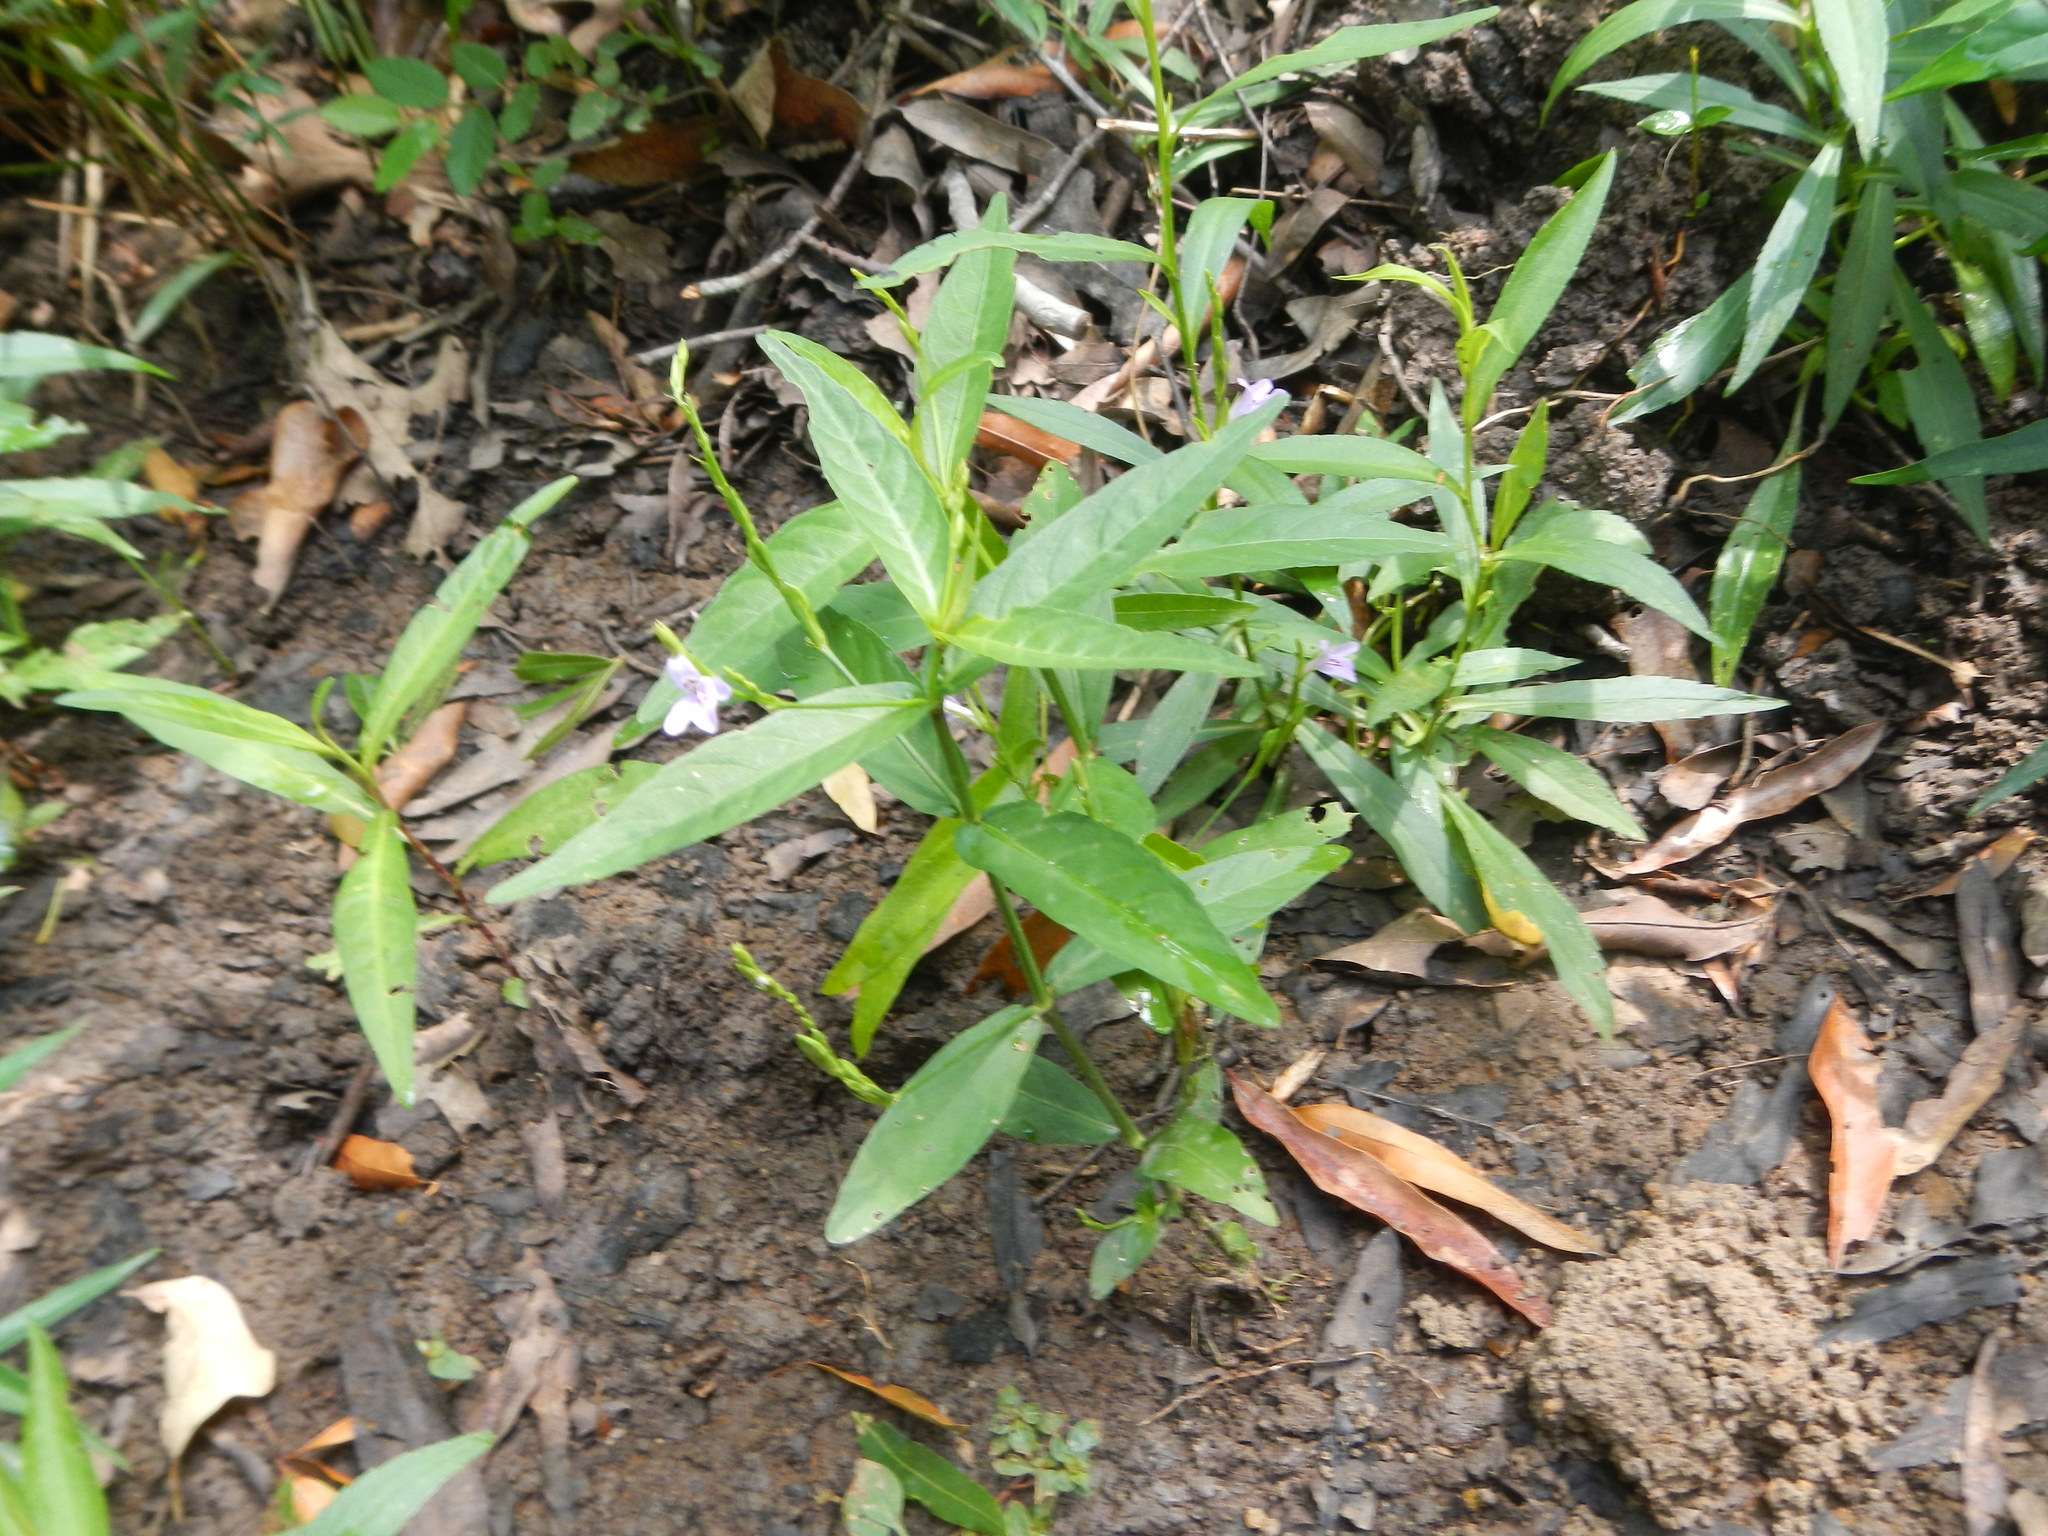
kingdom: Plantae
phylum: Tracheophyta
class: Magnoliopsida
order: Lamiales
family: Acanthaceae
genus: Justicia
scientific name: Justicia lanceolata
